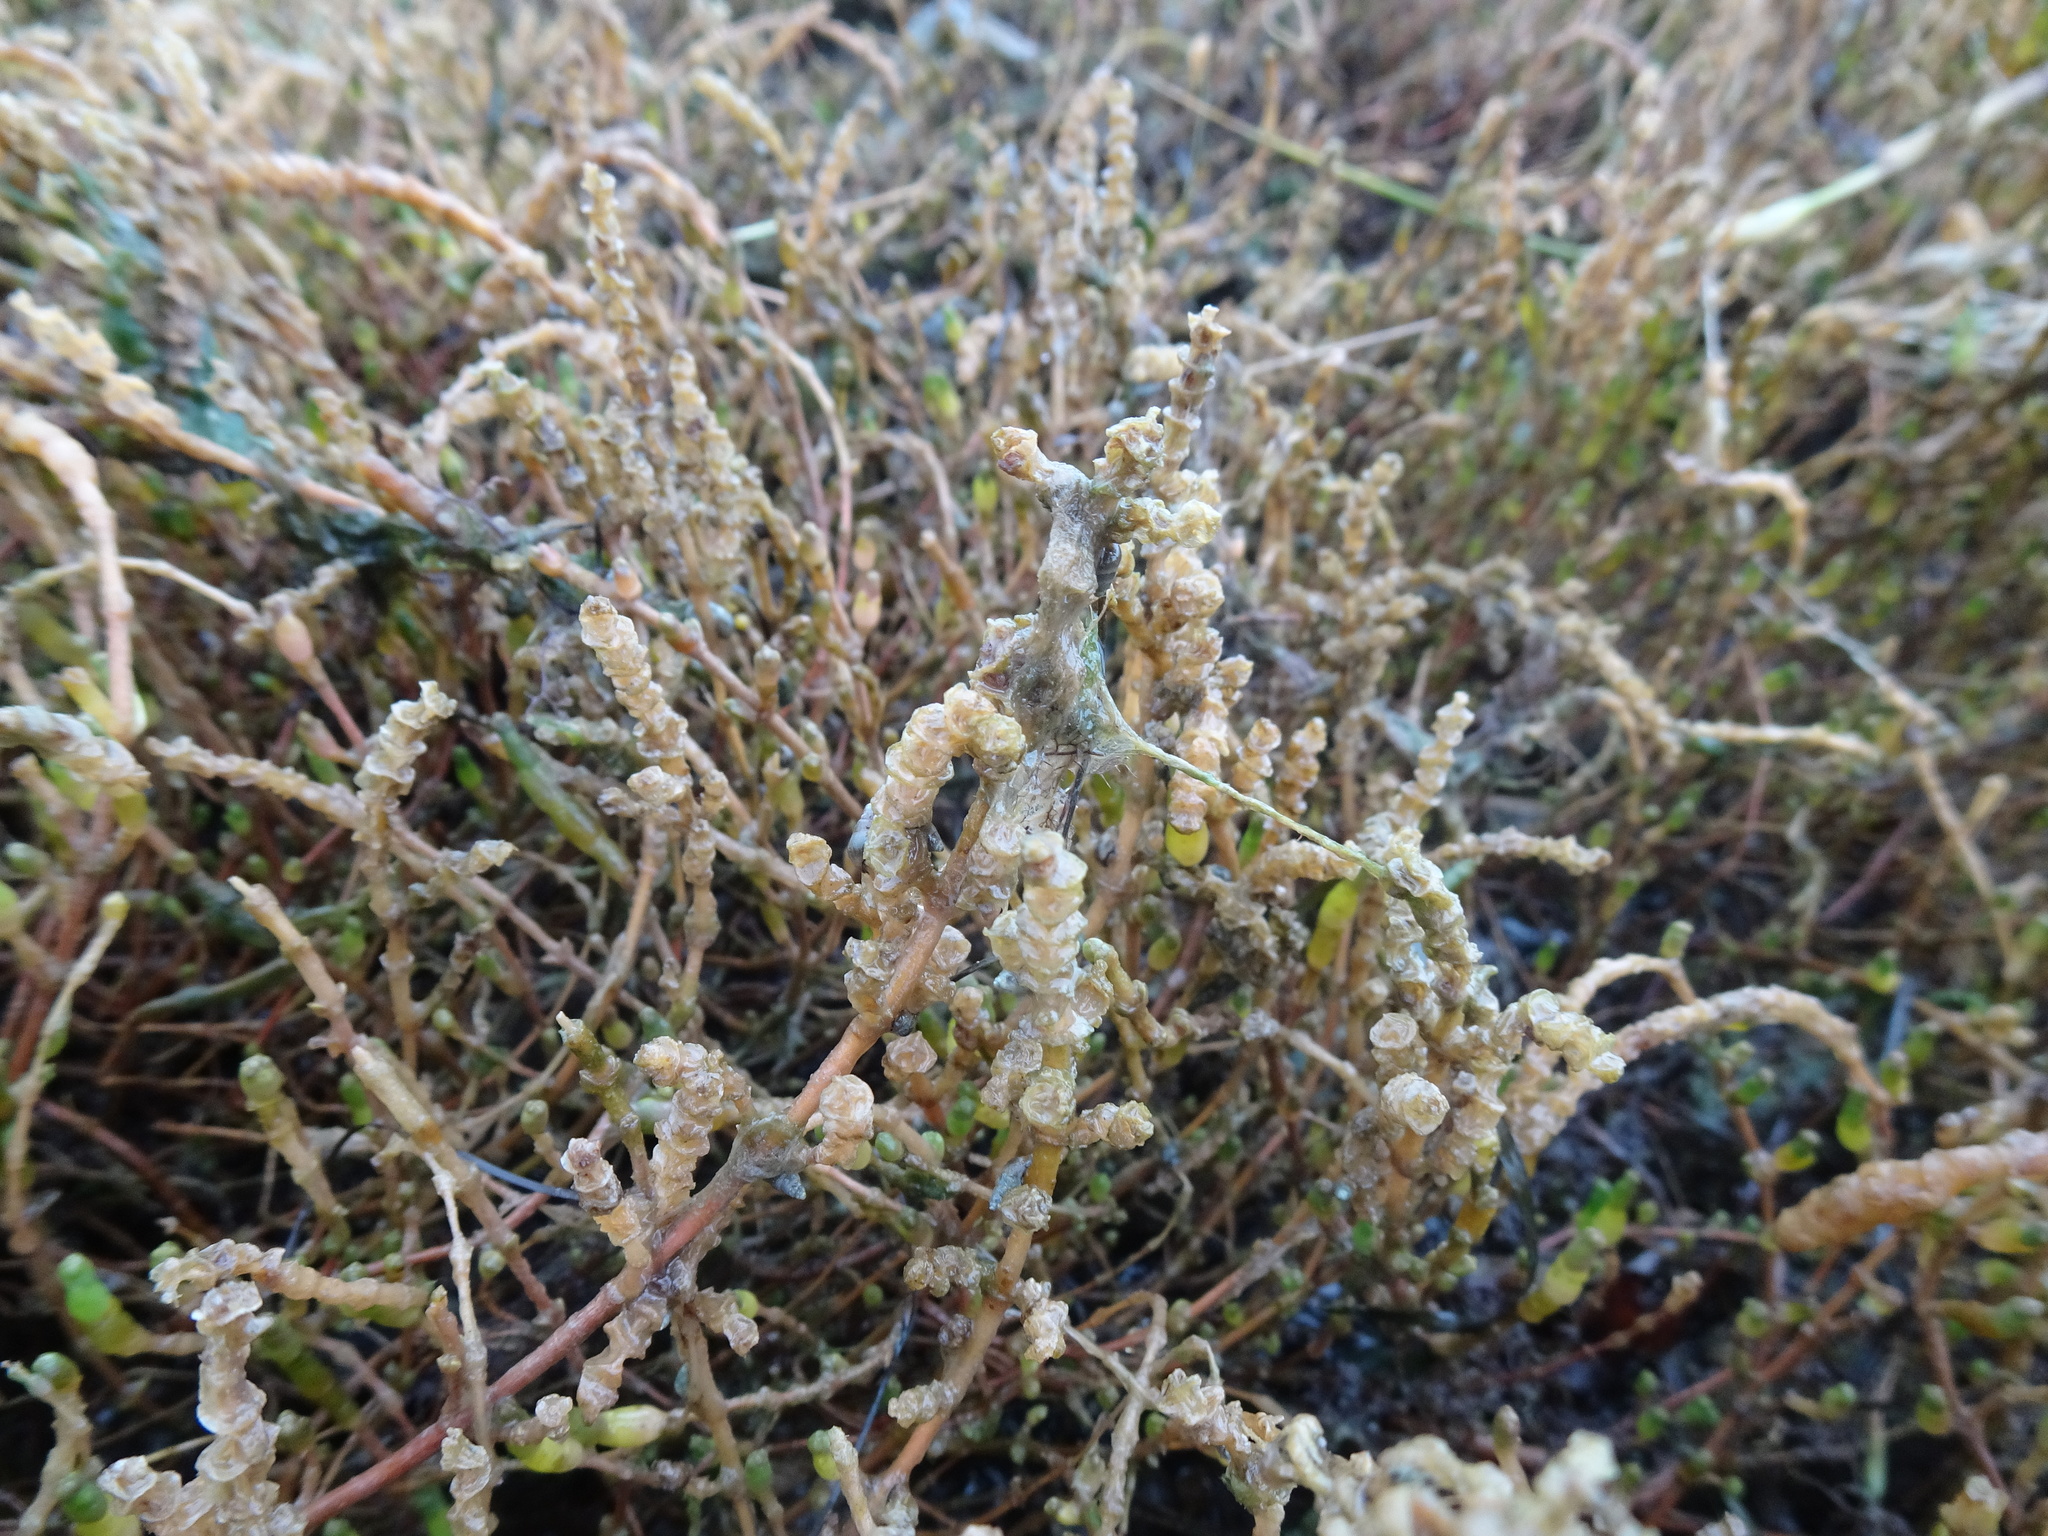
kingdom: Plantae
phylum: Tracheophyta
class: Magnoliopsida
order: Caryophyllales
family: Amaranthaceae
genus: Salicornia
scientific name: Salicornia perennis
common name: Chicken claws
